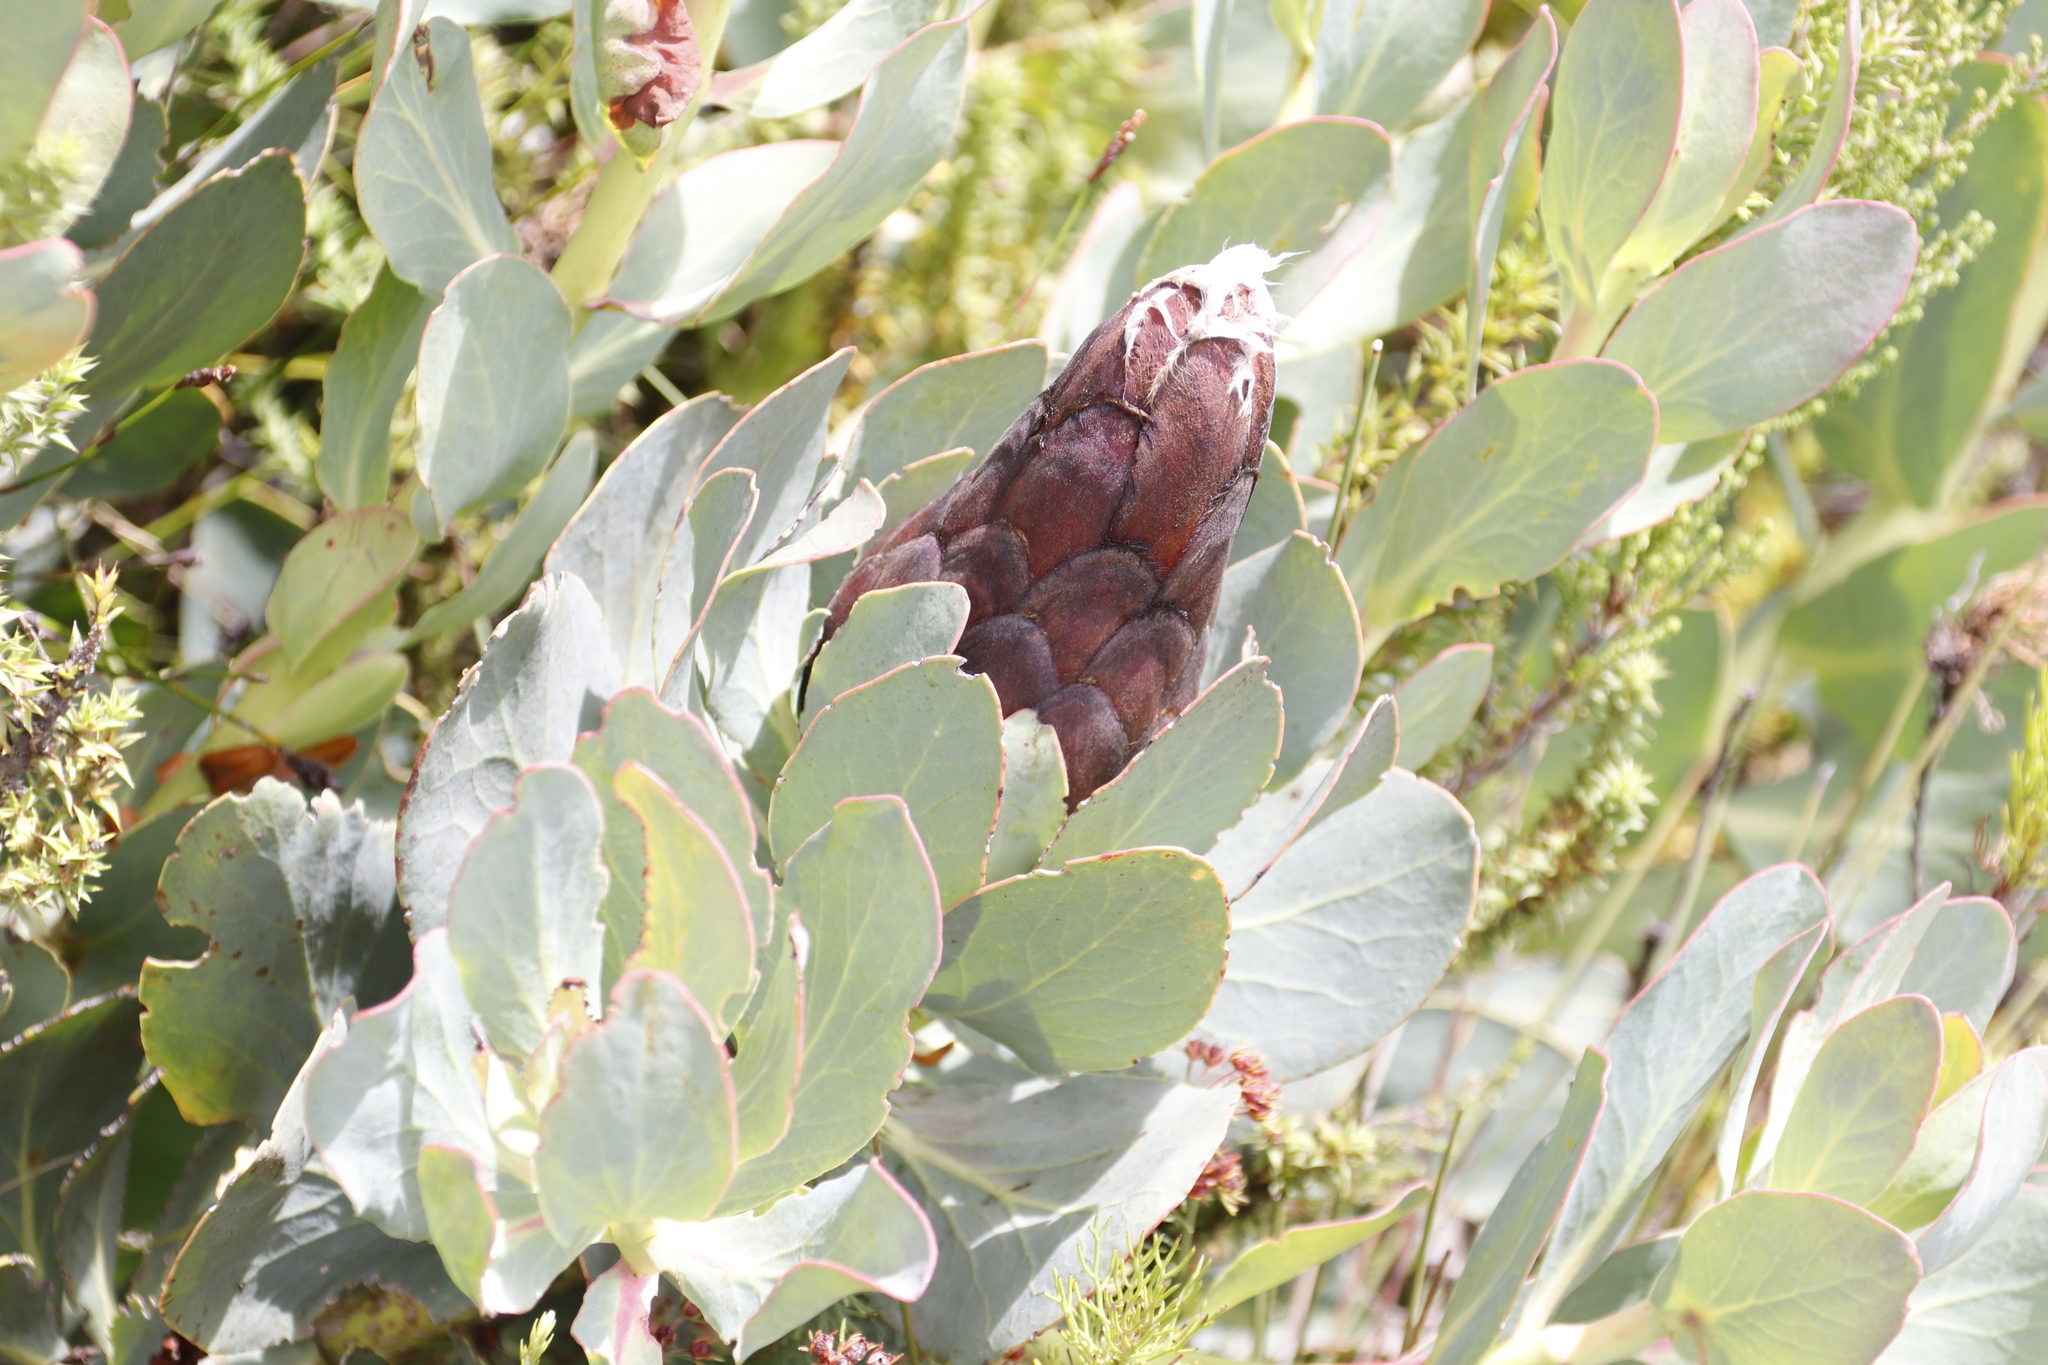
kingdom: Plantae
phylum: Tracheophyta
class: Magnoliopsida
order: Proteales
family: Proteaceae
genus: Protea
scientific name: Protea grandiceps
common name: Red sugarbush
